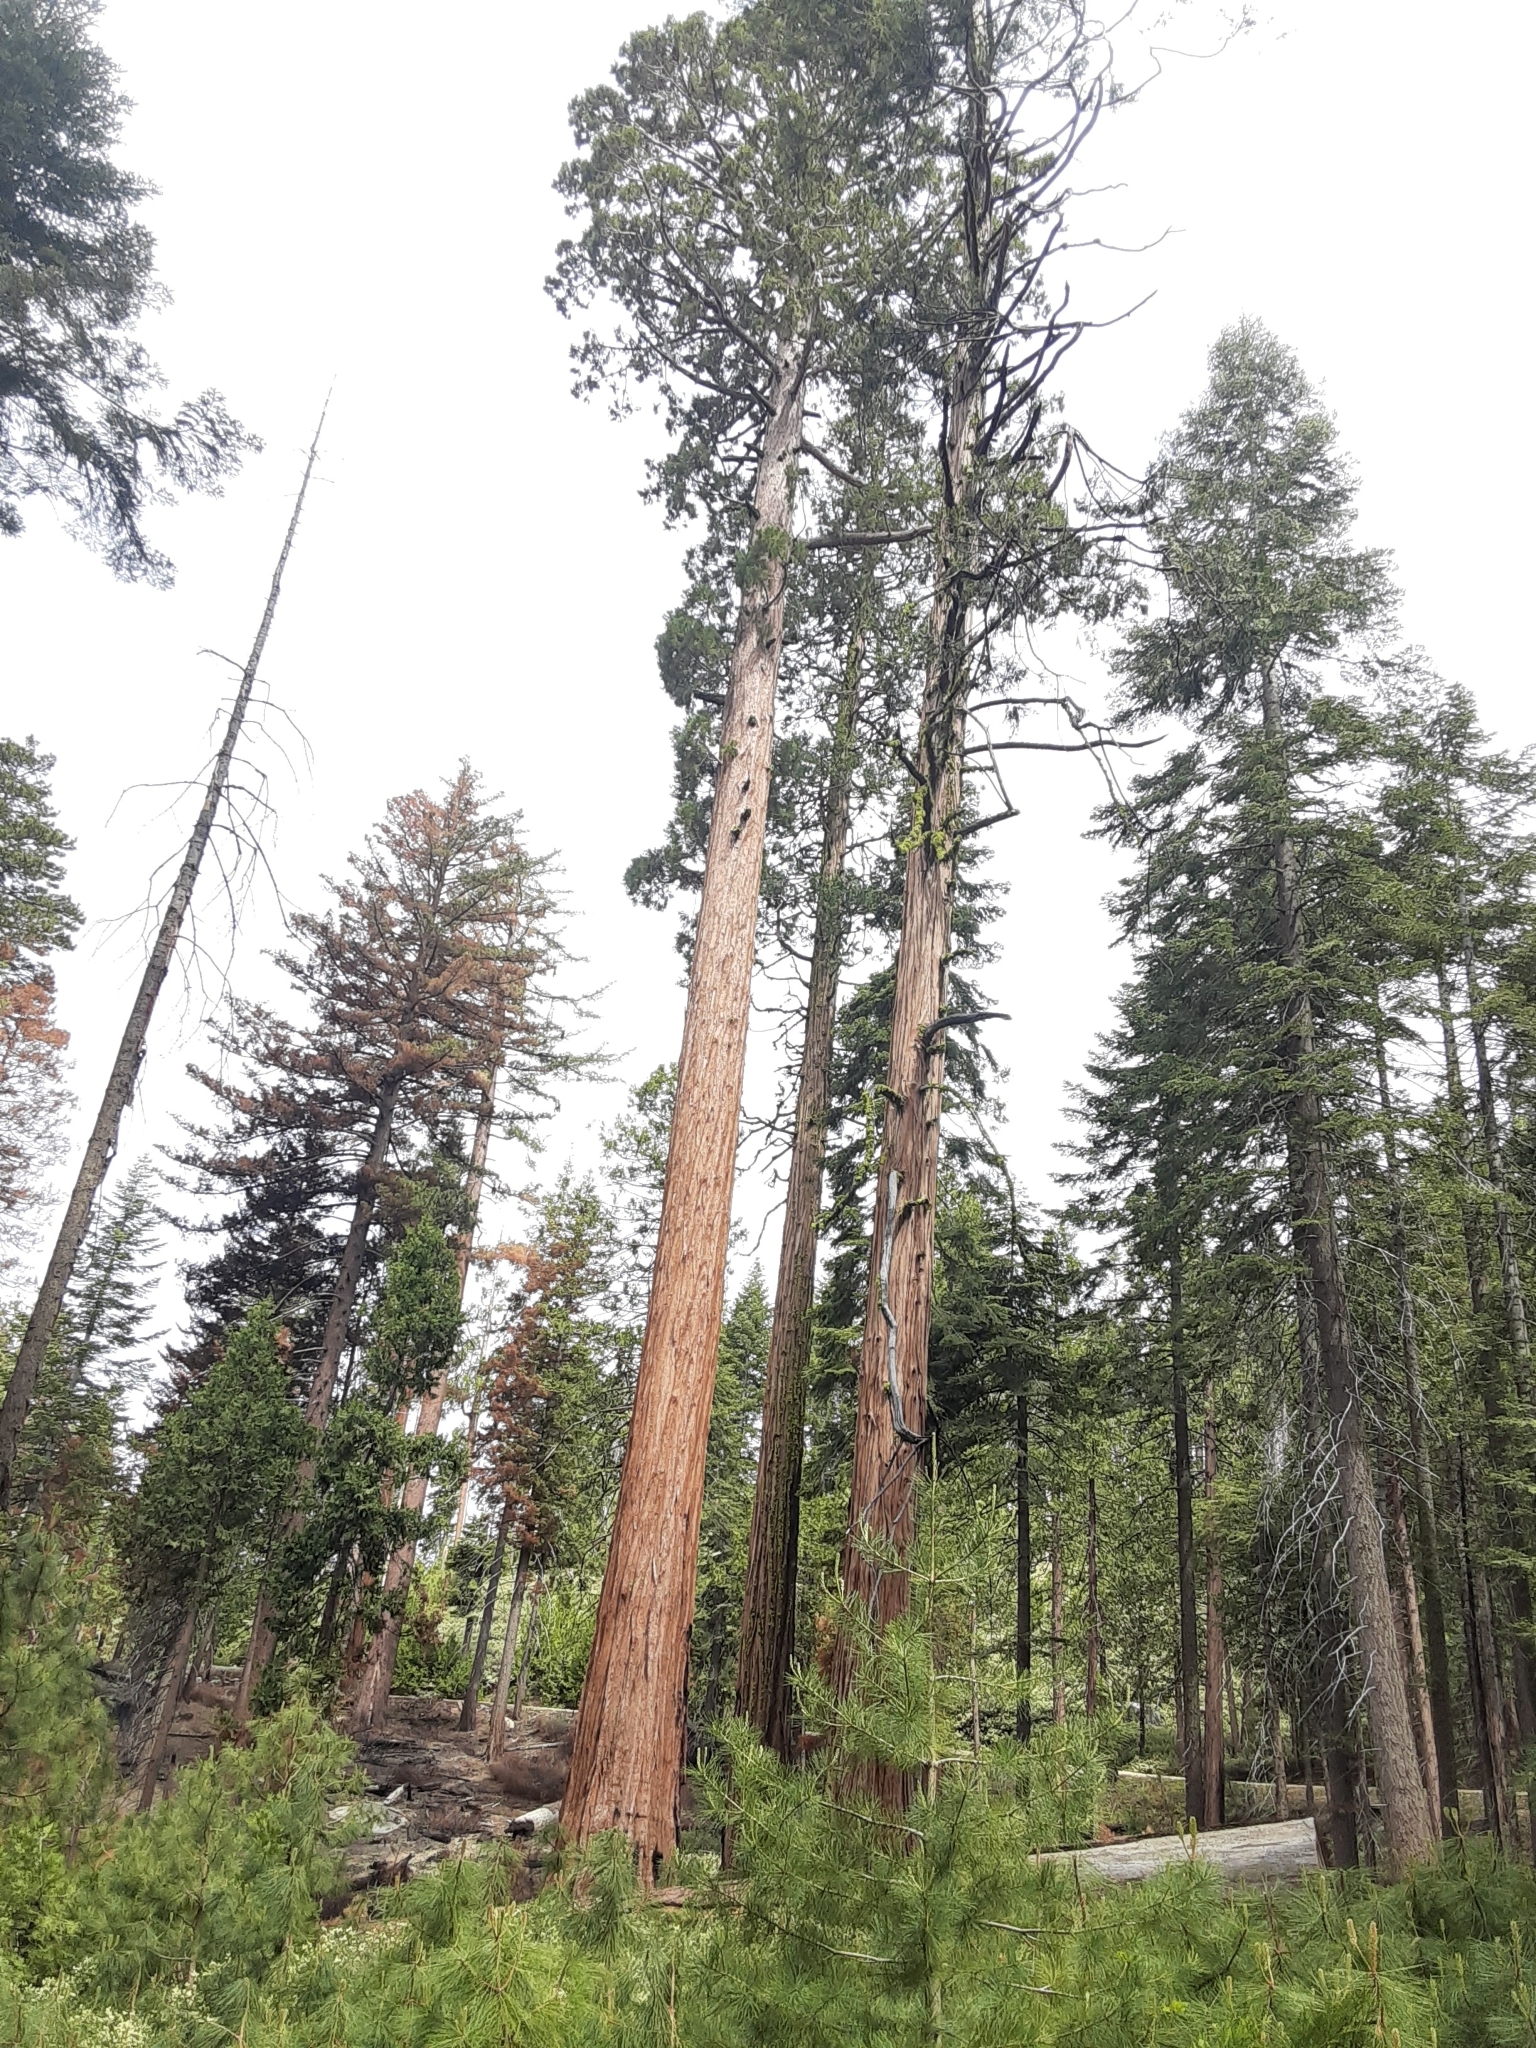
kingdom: Plantae
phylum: Tracheophyta
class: Pinopsida
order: Pinales
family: Cupressaceae
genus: Sequoiadendron
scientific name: Sequoiadendron giganteum
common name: Wellingtonia
